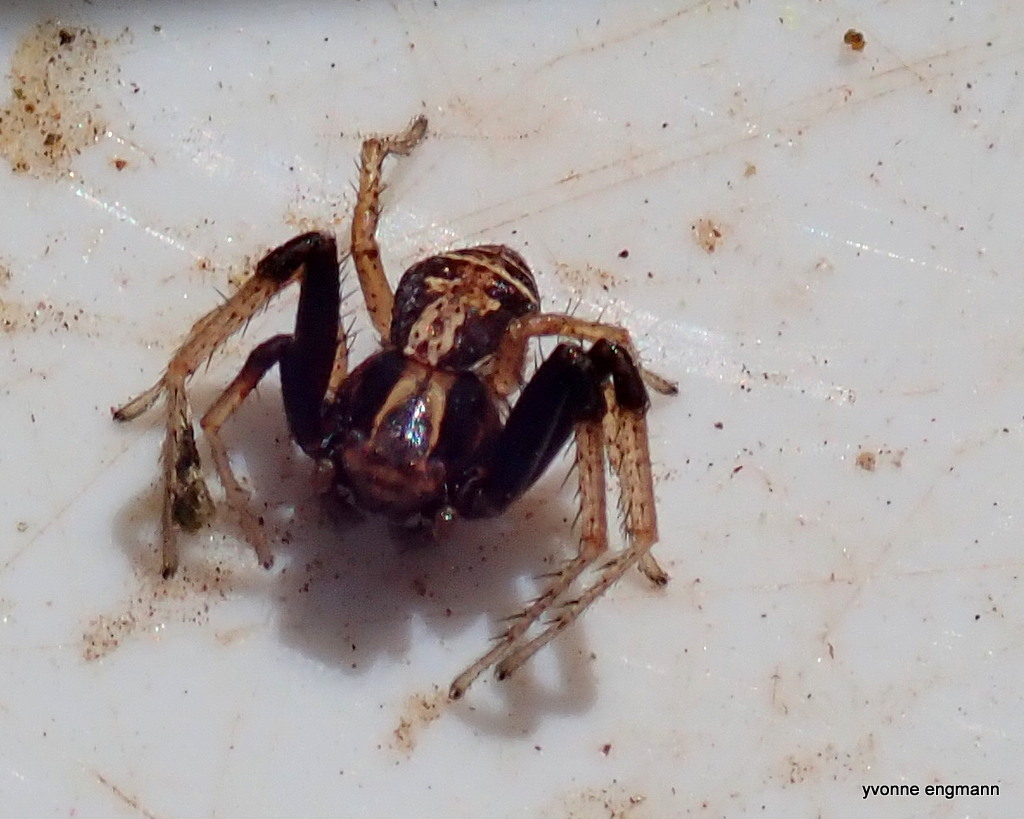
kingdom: Animalia
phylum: Arthropoda
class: Arachnida
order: Araneae
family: Thomisidae
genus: Xysticus
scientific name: Xysticus ulmi
